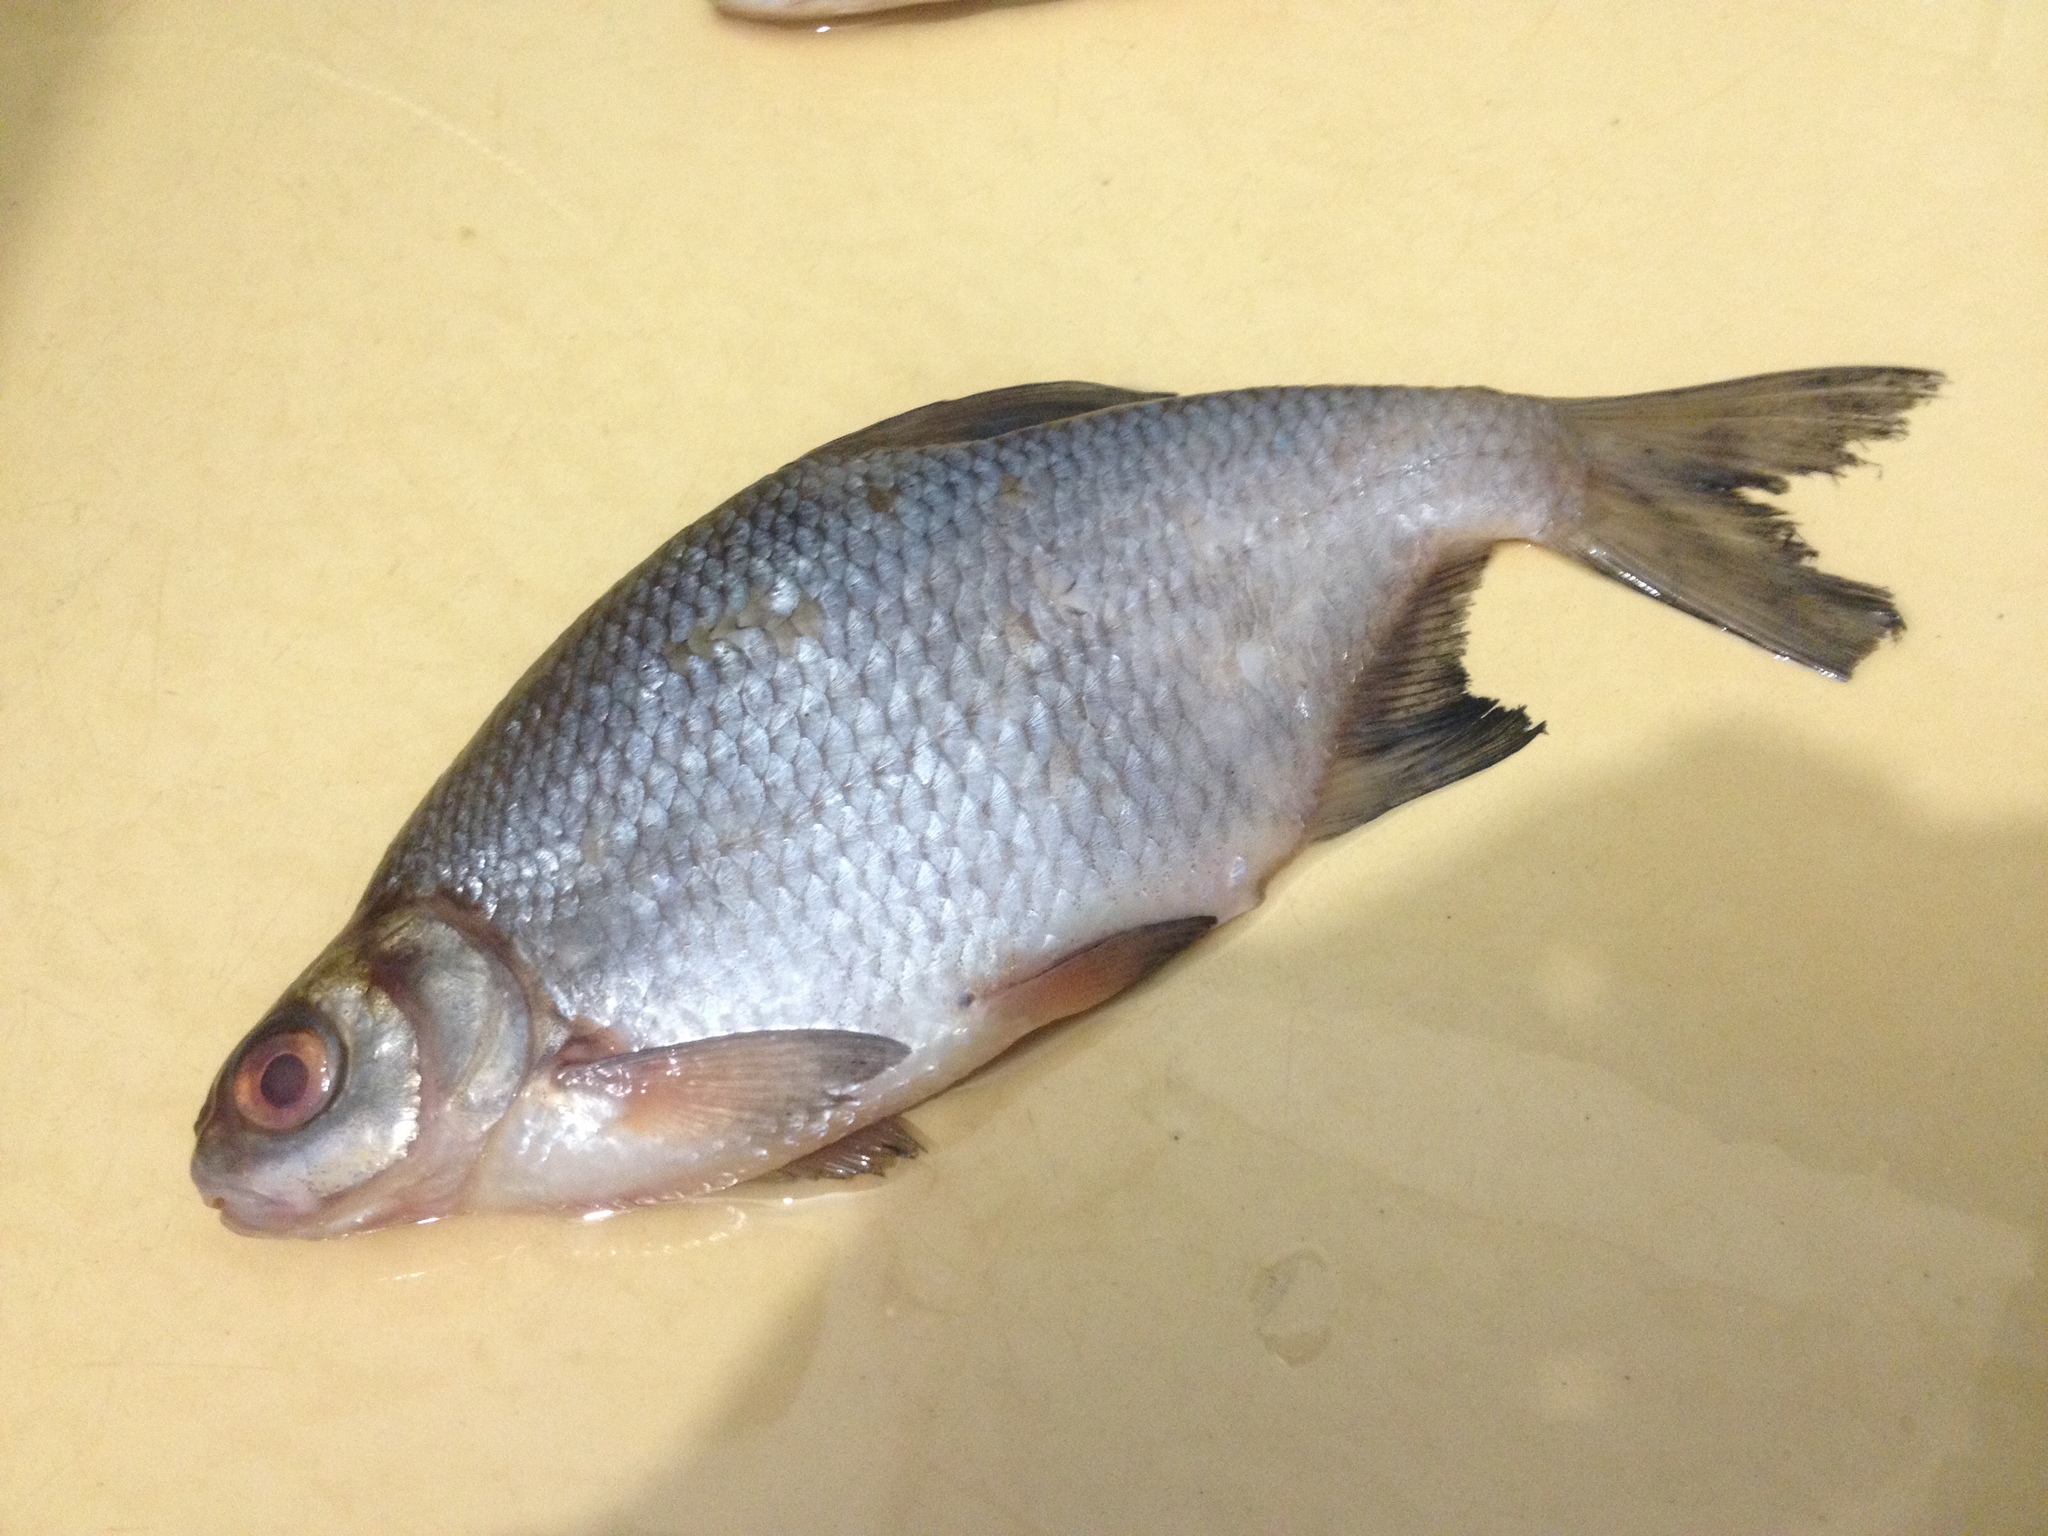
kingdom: Animalia
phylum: Chordata
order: Cypriniformes
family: Cyprinidae
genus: Blicca
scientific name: Blicca bjoerkna
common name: White bream
